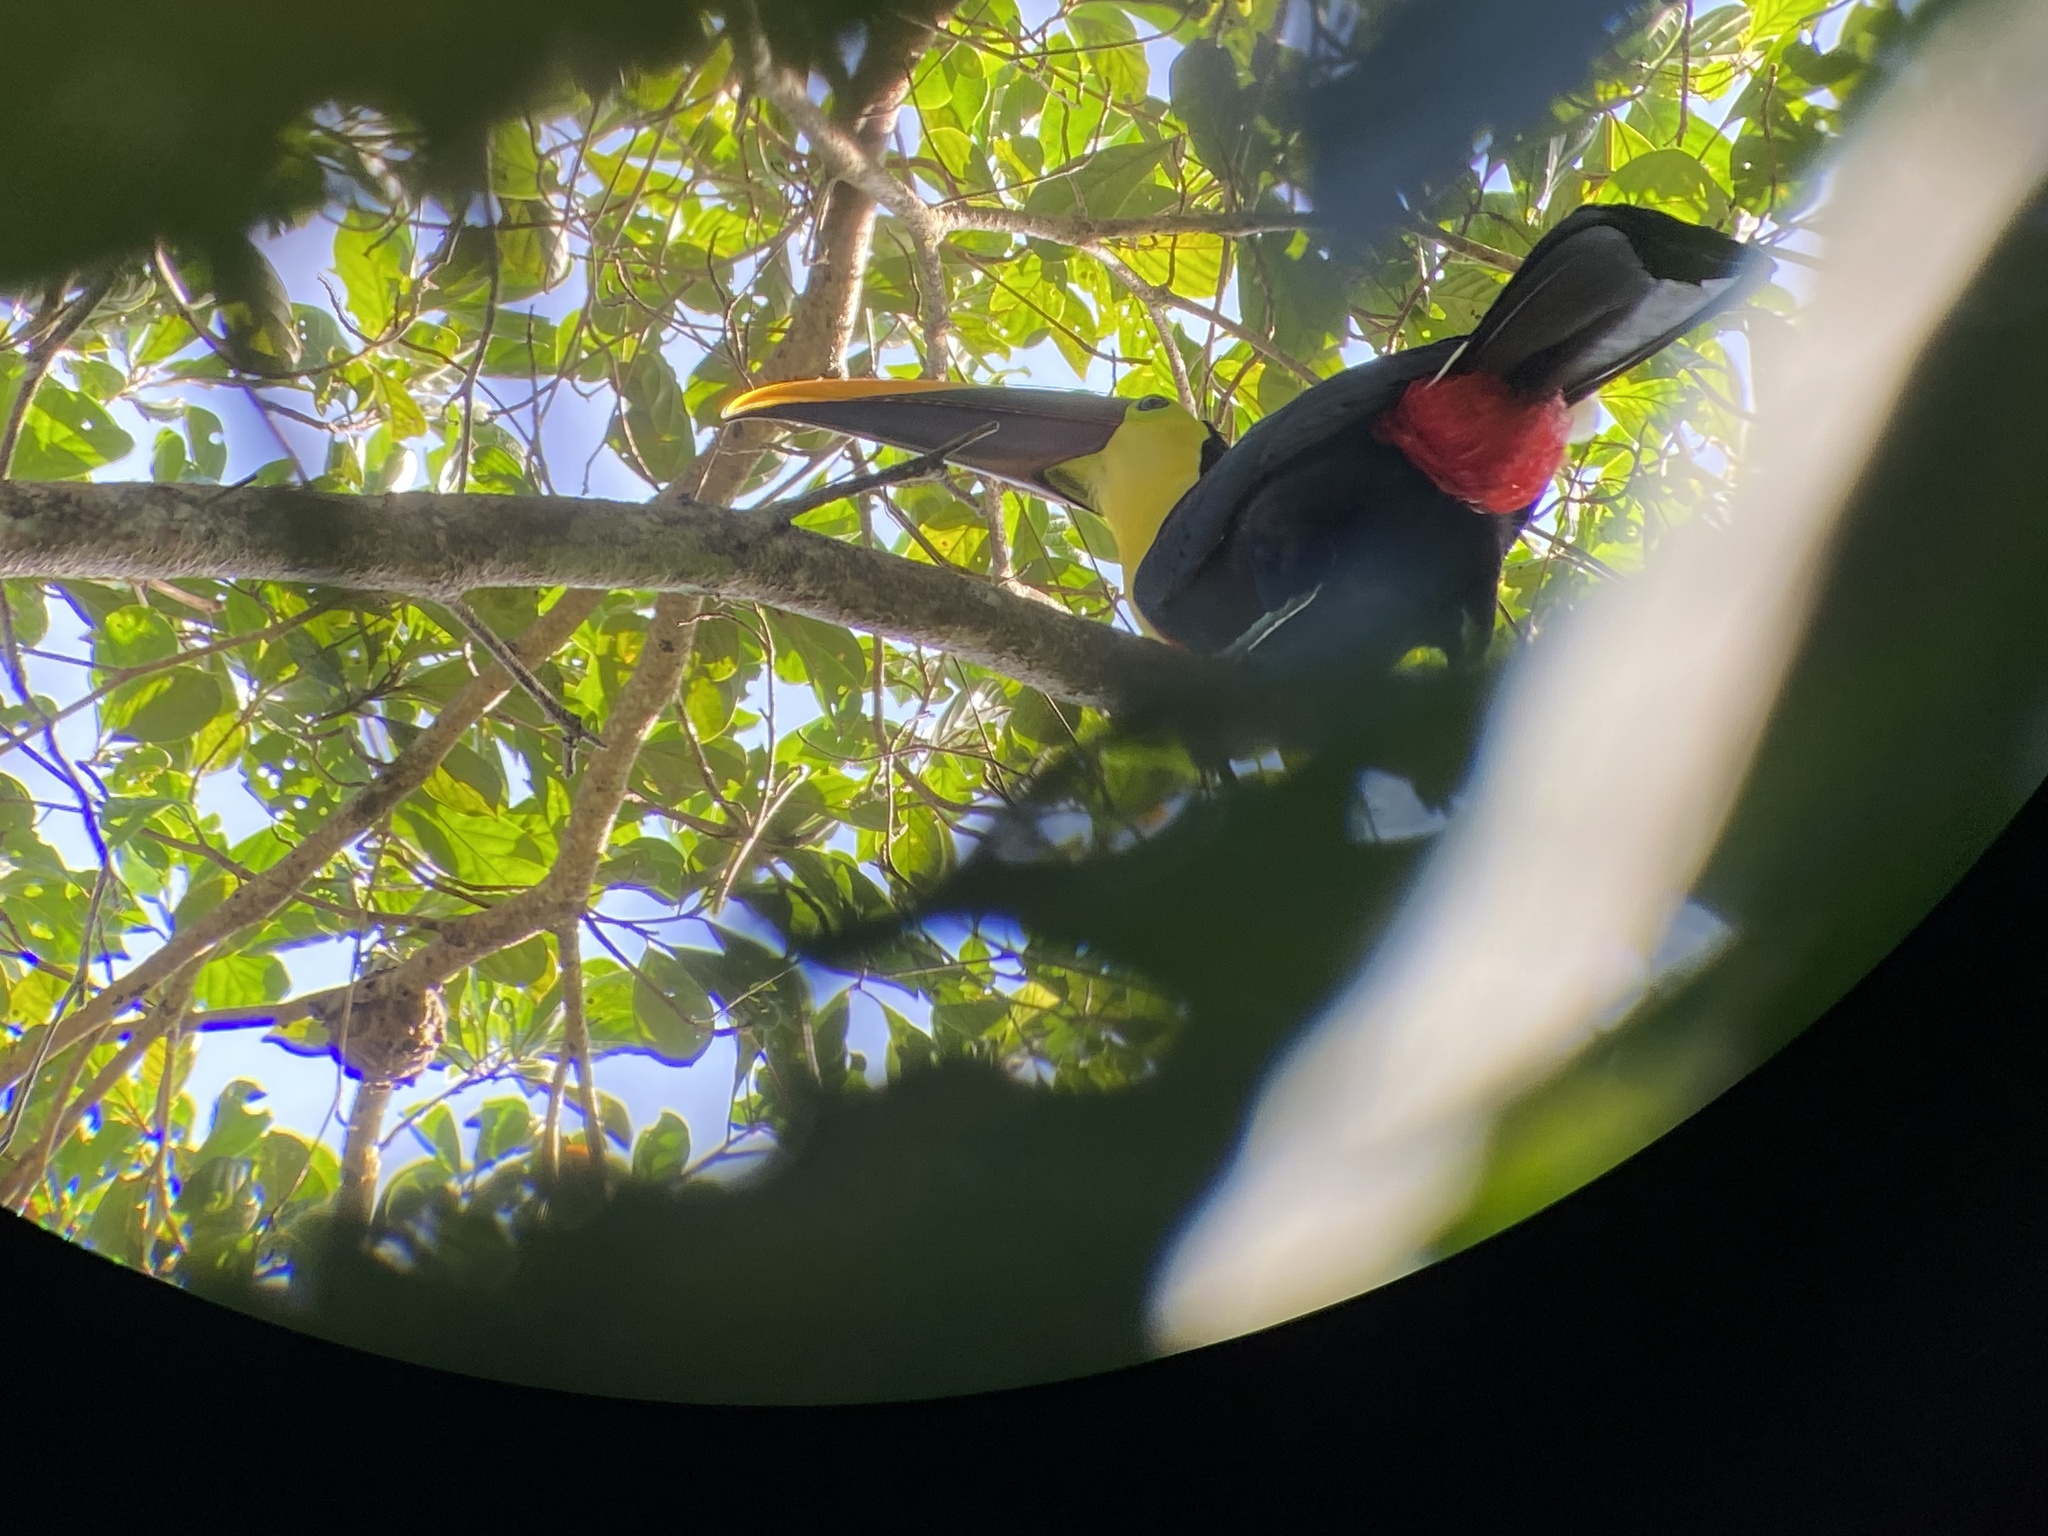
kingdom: Animalia
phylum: Chordata
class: Aves
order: Piciformes
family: Ramphastidae
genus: Ramphastos
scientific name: Ramphastos ambiguus
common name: Yellow-throated toucan
